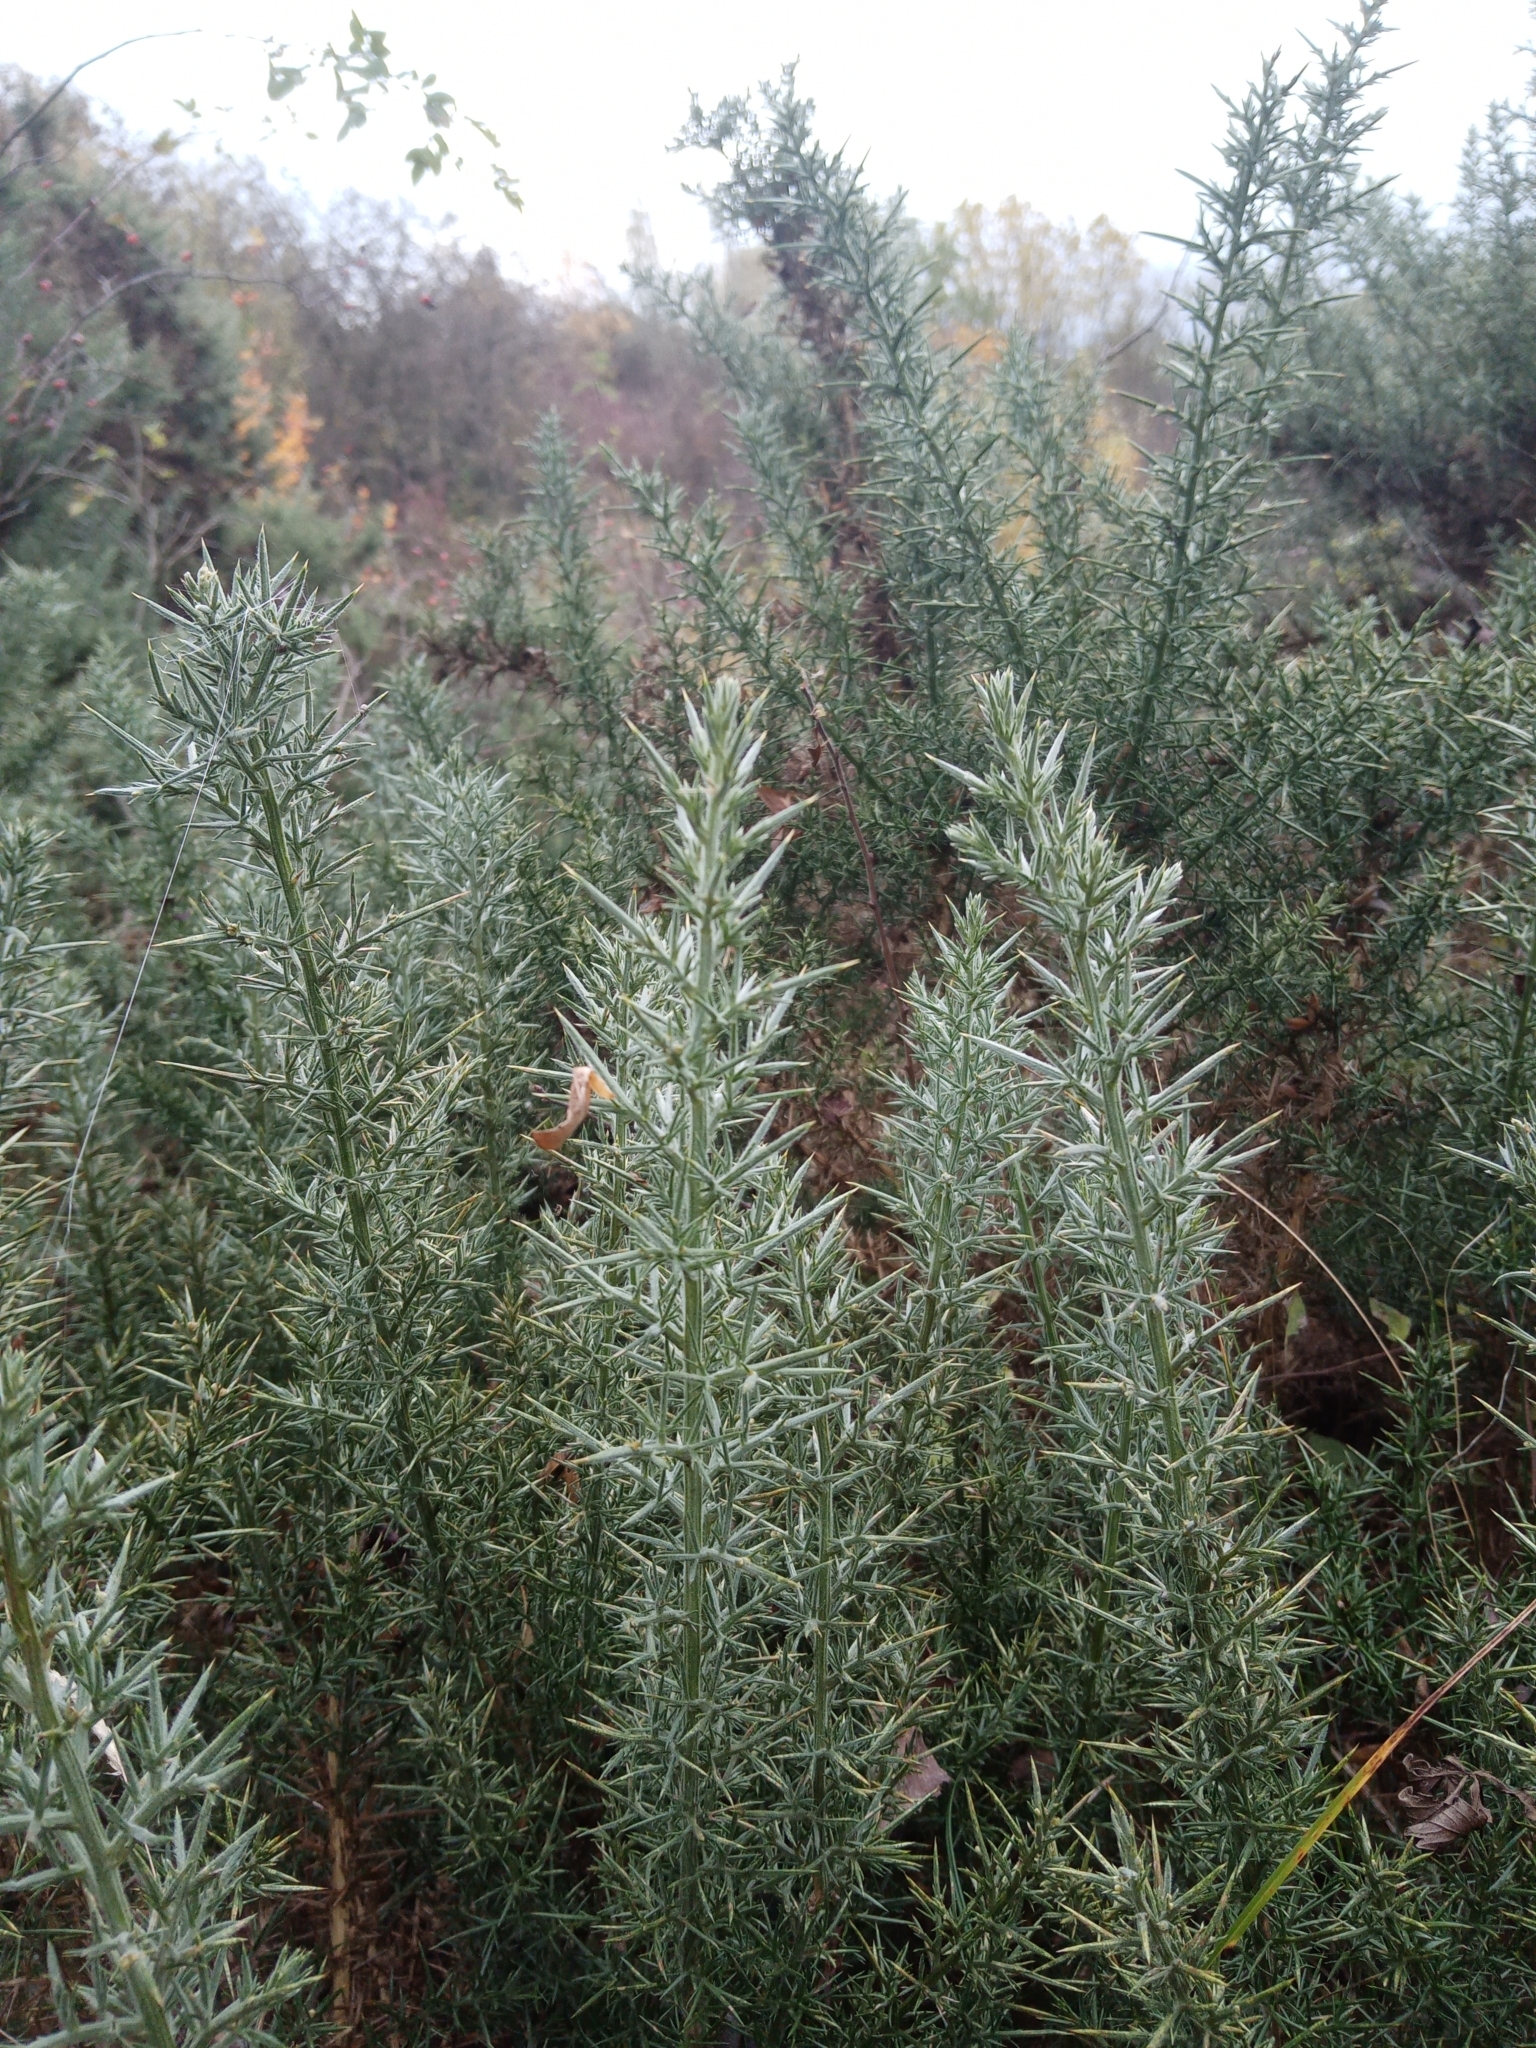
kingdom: Plantae
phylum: Tracheophyta
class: Magnoliopsida
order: Fabales
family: Fabaceae
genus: Ulex
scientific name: Ulex europaeus
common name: Common gorse
